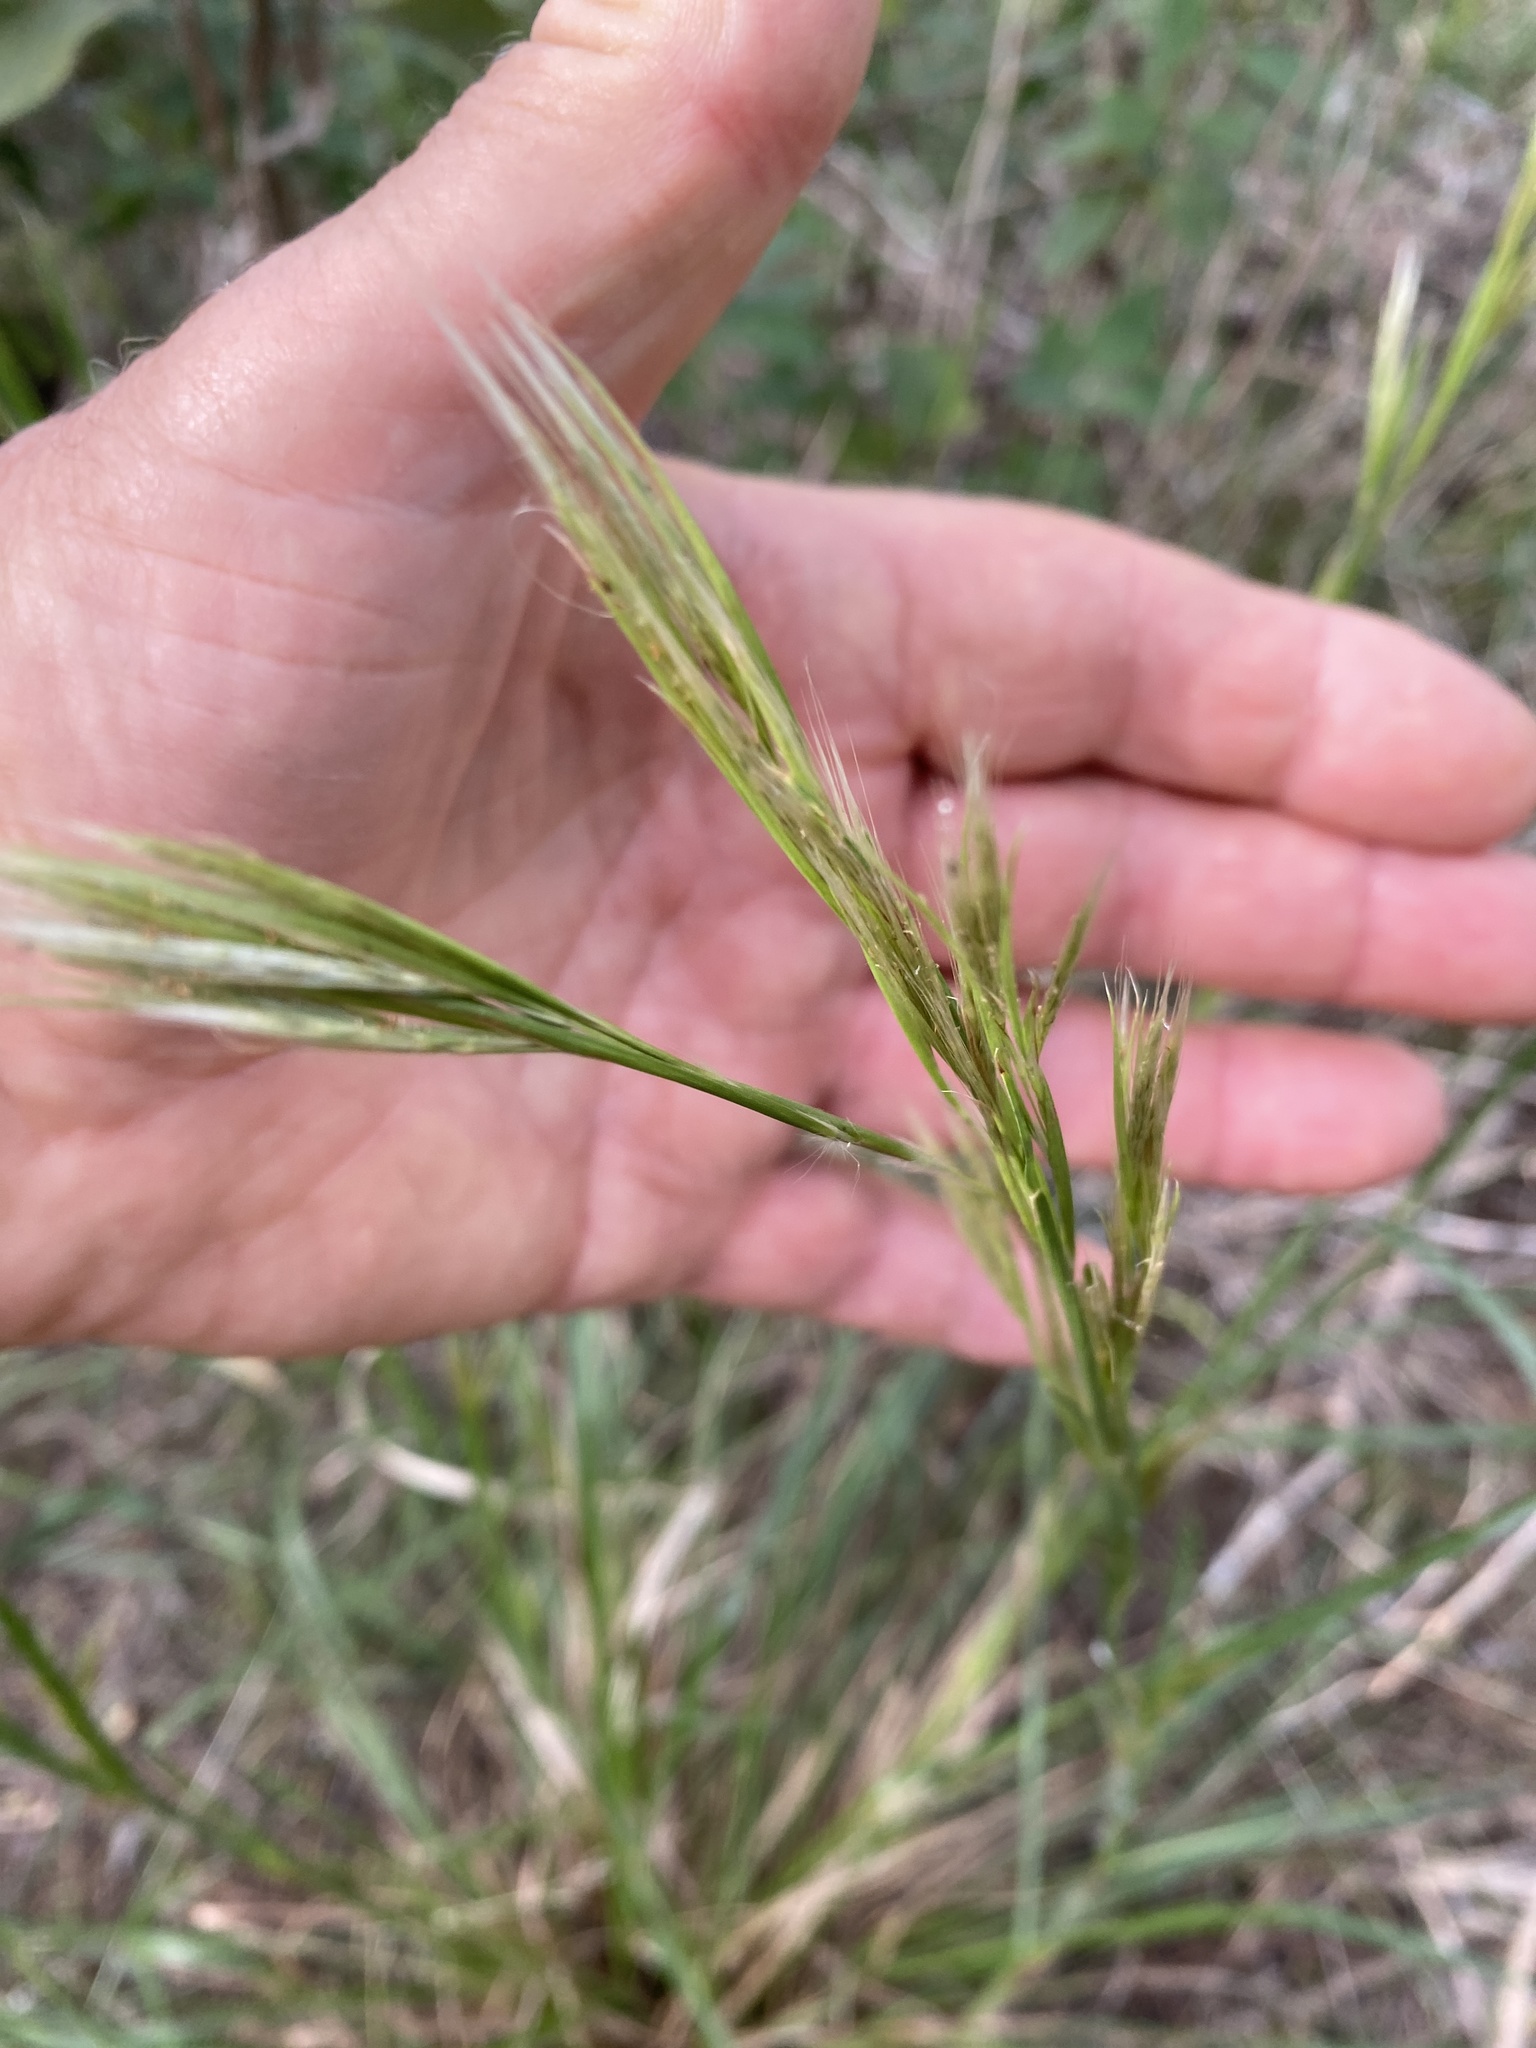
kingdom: Plantae
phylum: Tracheophyta
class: Liliopsida
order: Poales
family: Poaceae
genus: Andropogon
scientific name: Andropogon tenuispatheus
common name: Bushy bluestem
